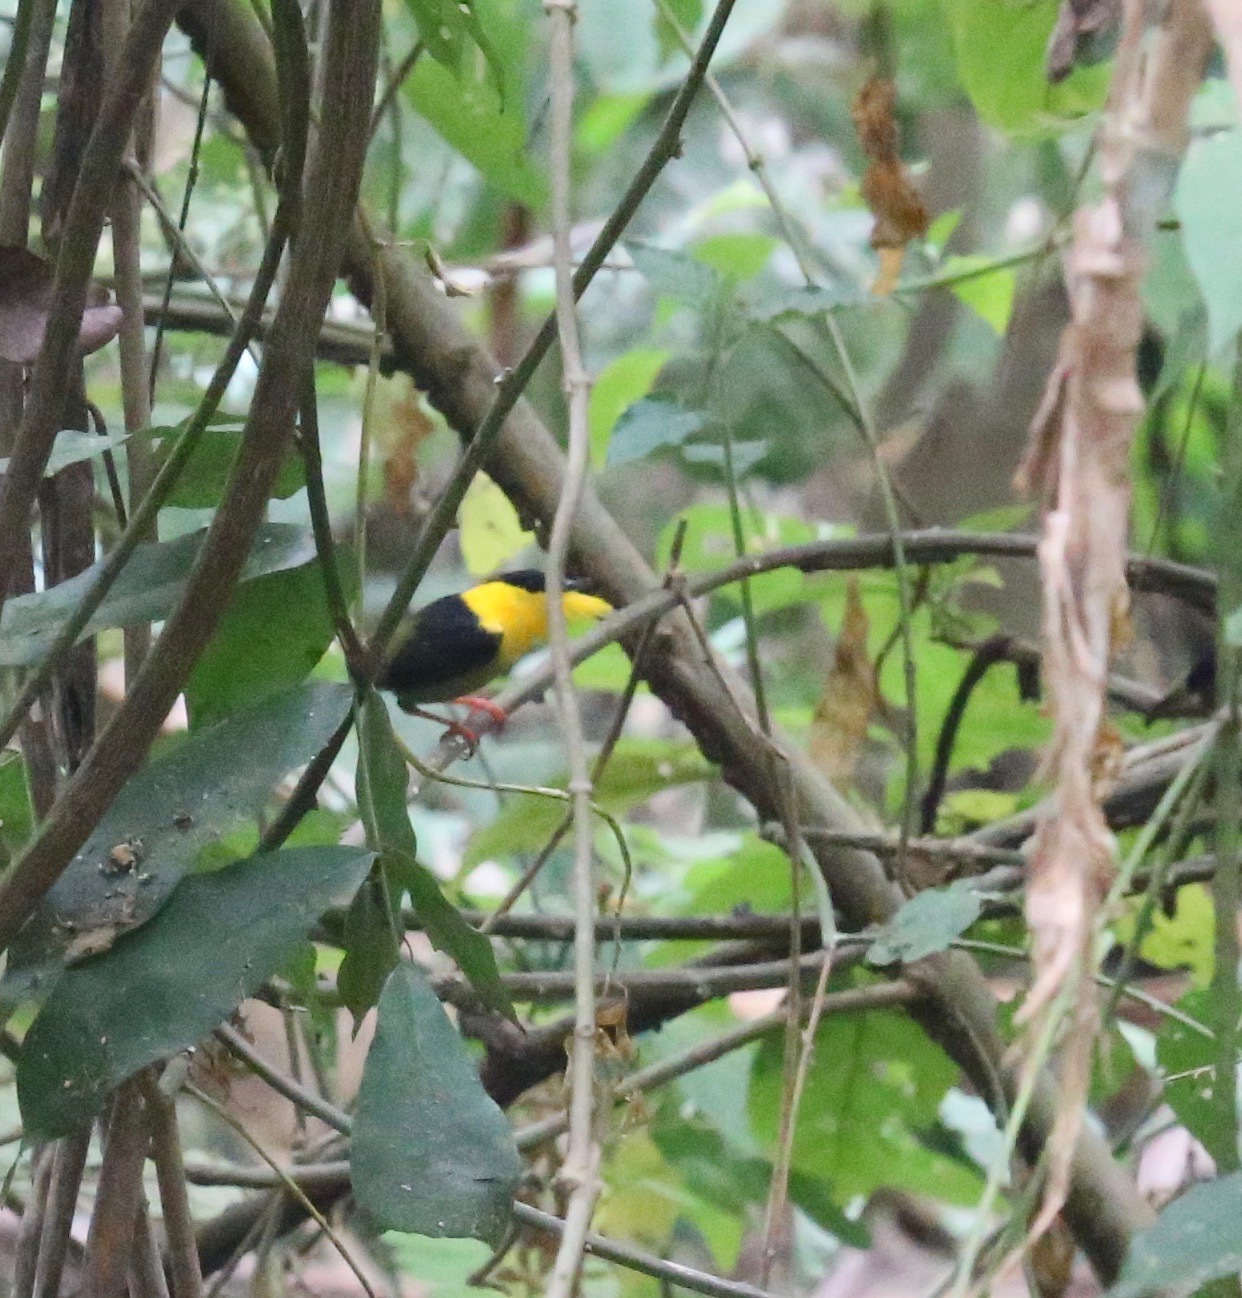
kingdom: Animalia
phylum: Chordata
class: Aves
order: Passeriformes
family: Pipridae
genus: Manacus
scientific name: Manacus vitellinus
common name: Golden-collared manakin
